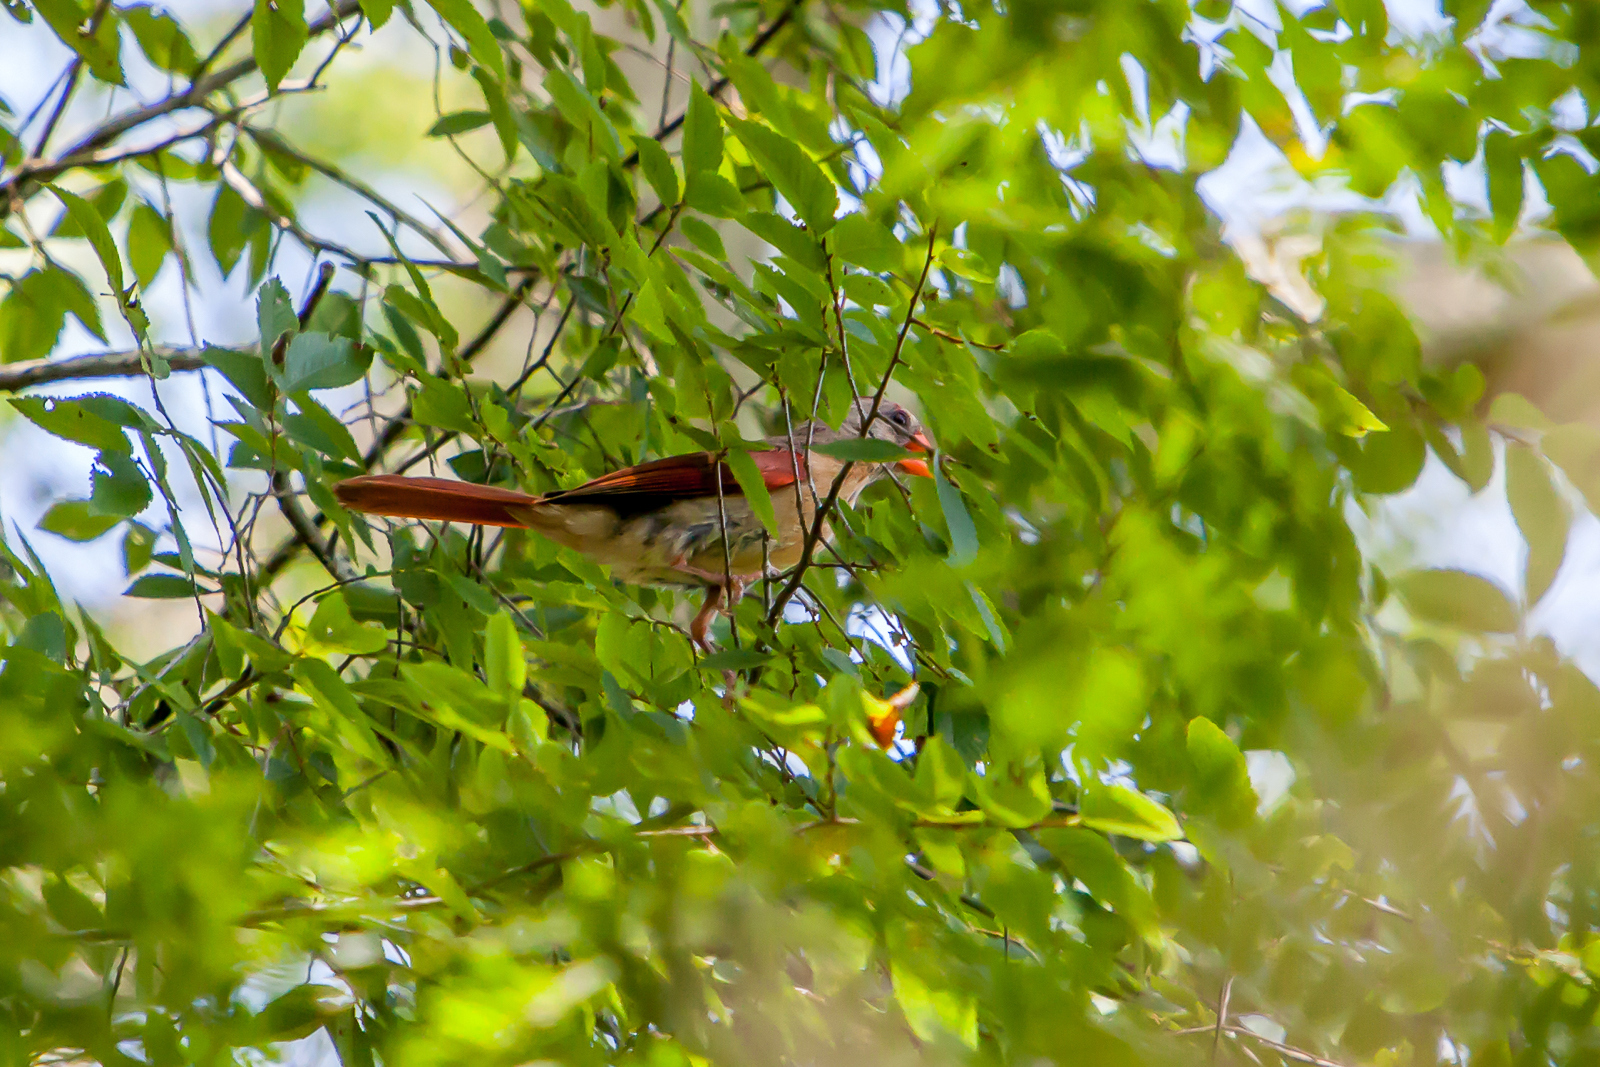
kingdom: Animalia
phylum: Chordata
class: Aves
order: Passeriformes
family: Cardinalidae
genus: Cardinalis
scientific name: Cardinalis cardinalis
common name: Northern cardinal
